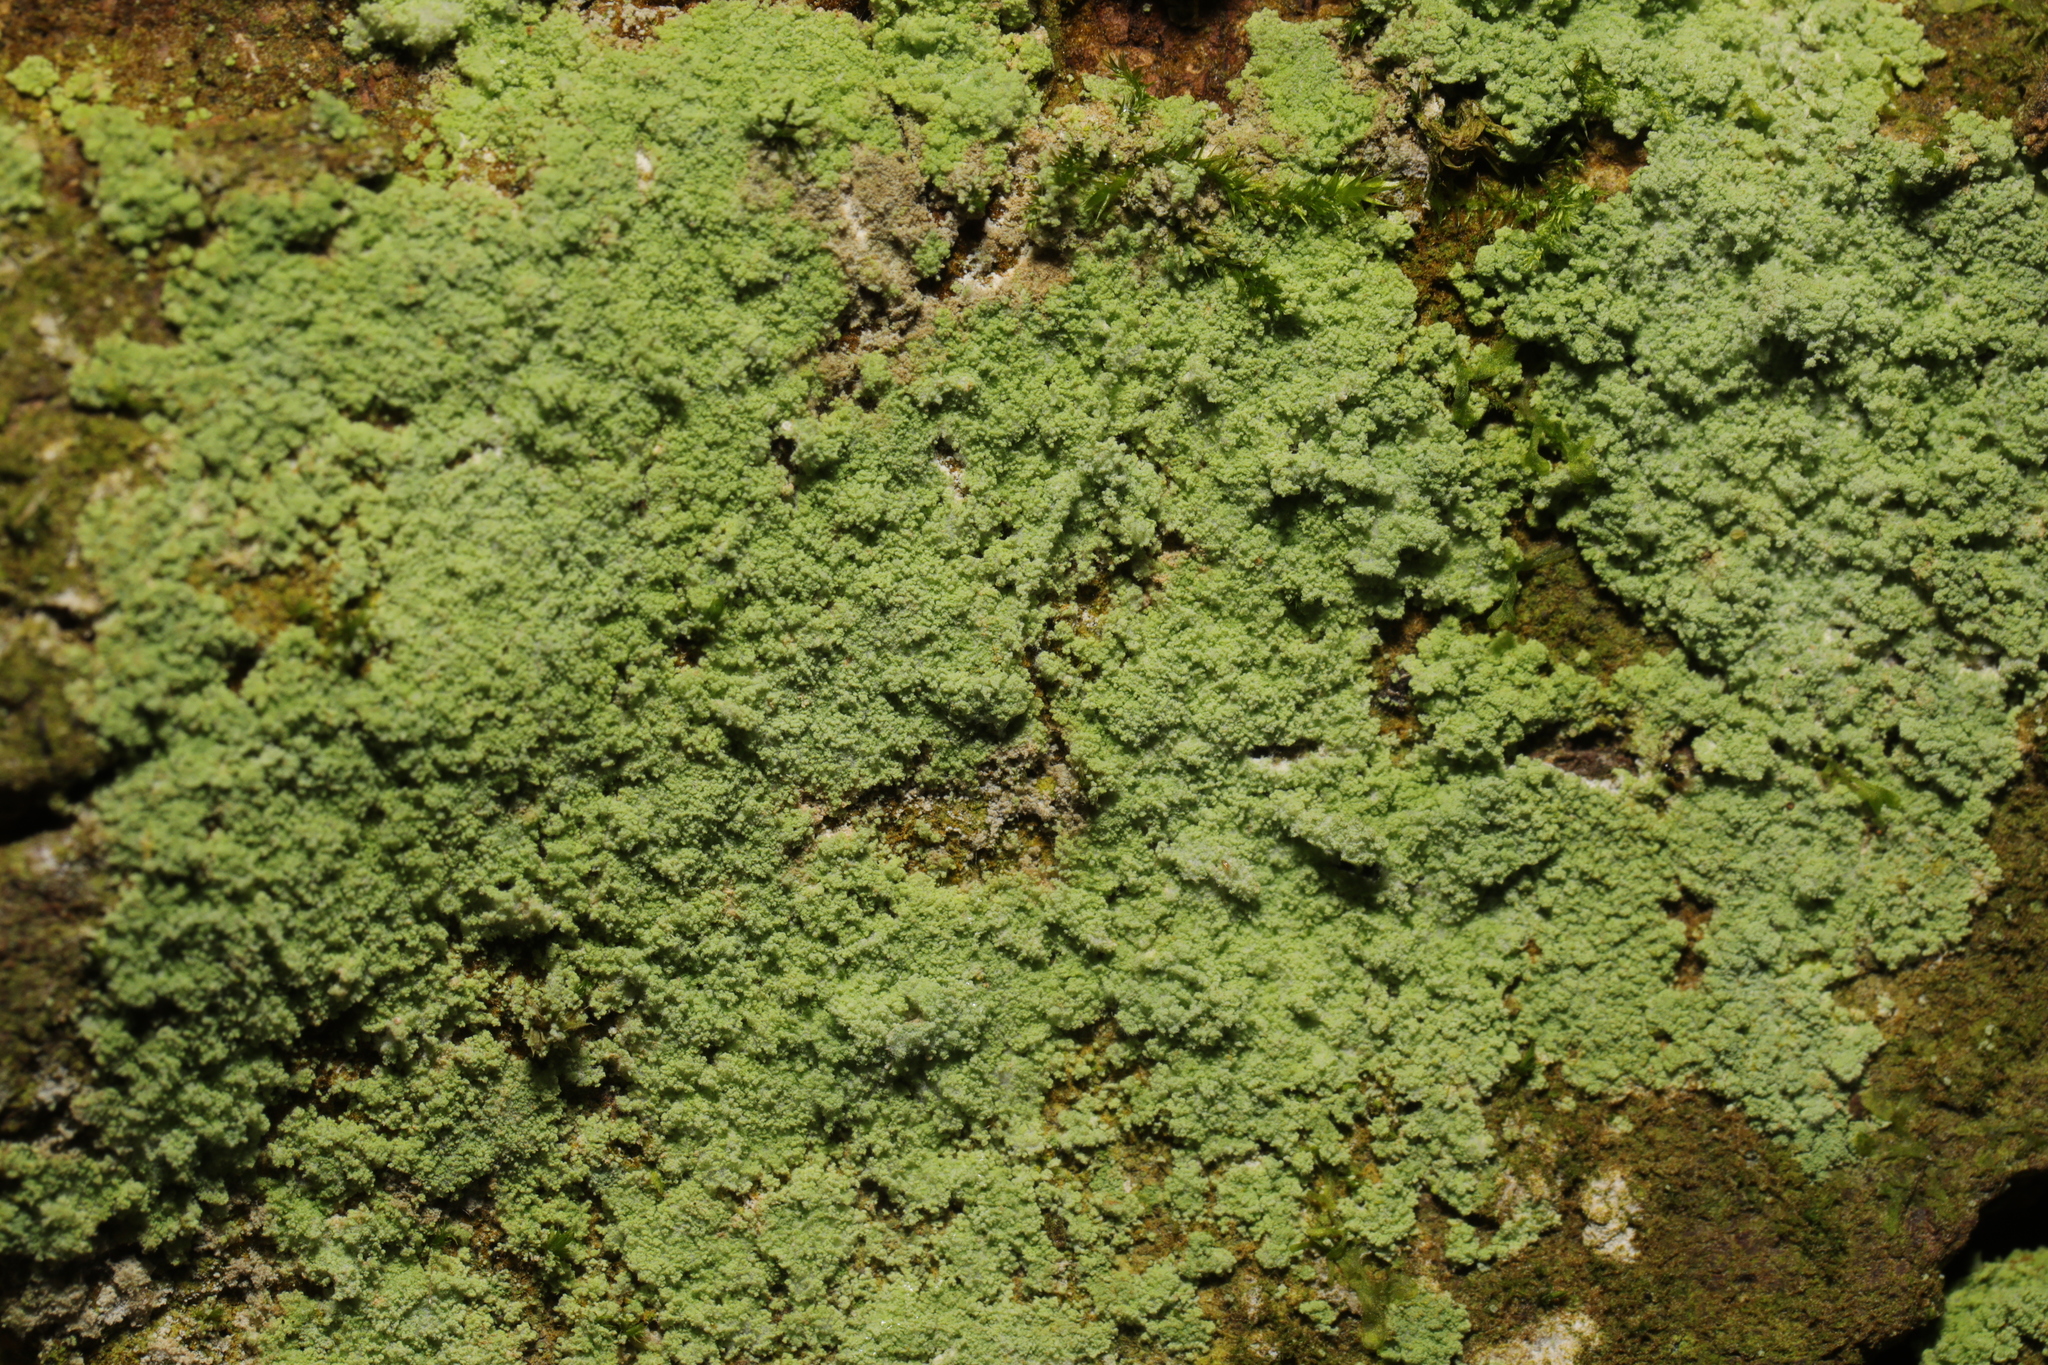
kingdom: Fungi
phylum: Ascomycota
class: Lecanoromycetes
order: Lecanorales
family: Stereocaulaceae
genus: Lepraria
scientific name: Lepraria
